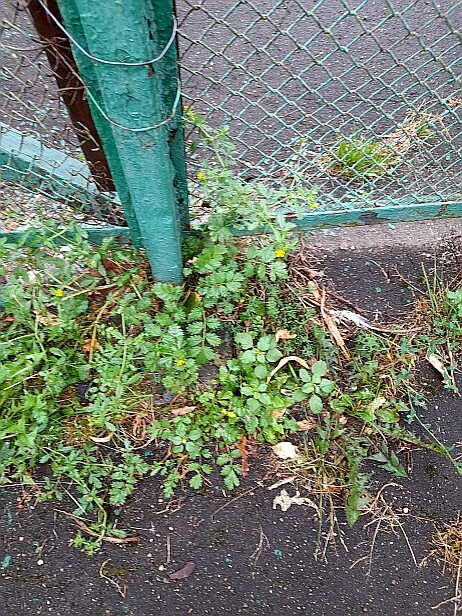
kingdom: Plantae
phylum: Tracheophyta
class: Magnoliopsida
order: Rosales
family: Rosaceae
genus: Potentilla
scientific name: Potentilla supina
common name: Prostrate cinquefoil
